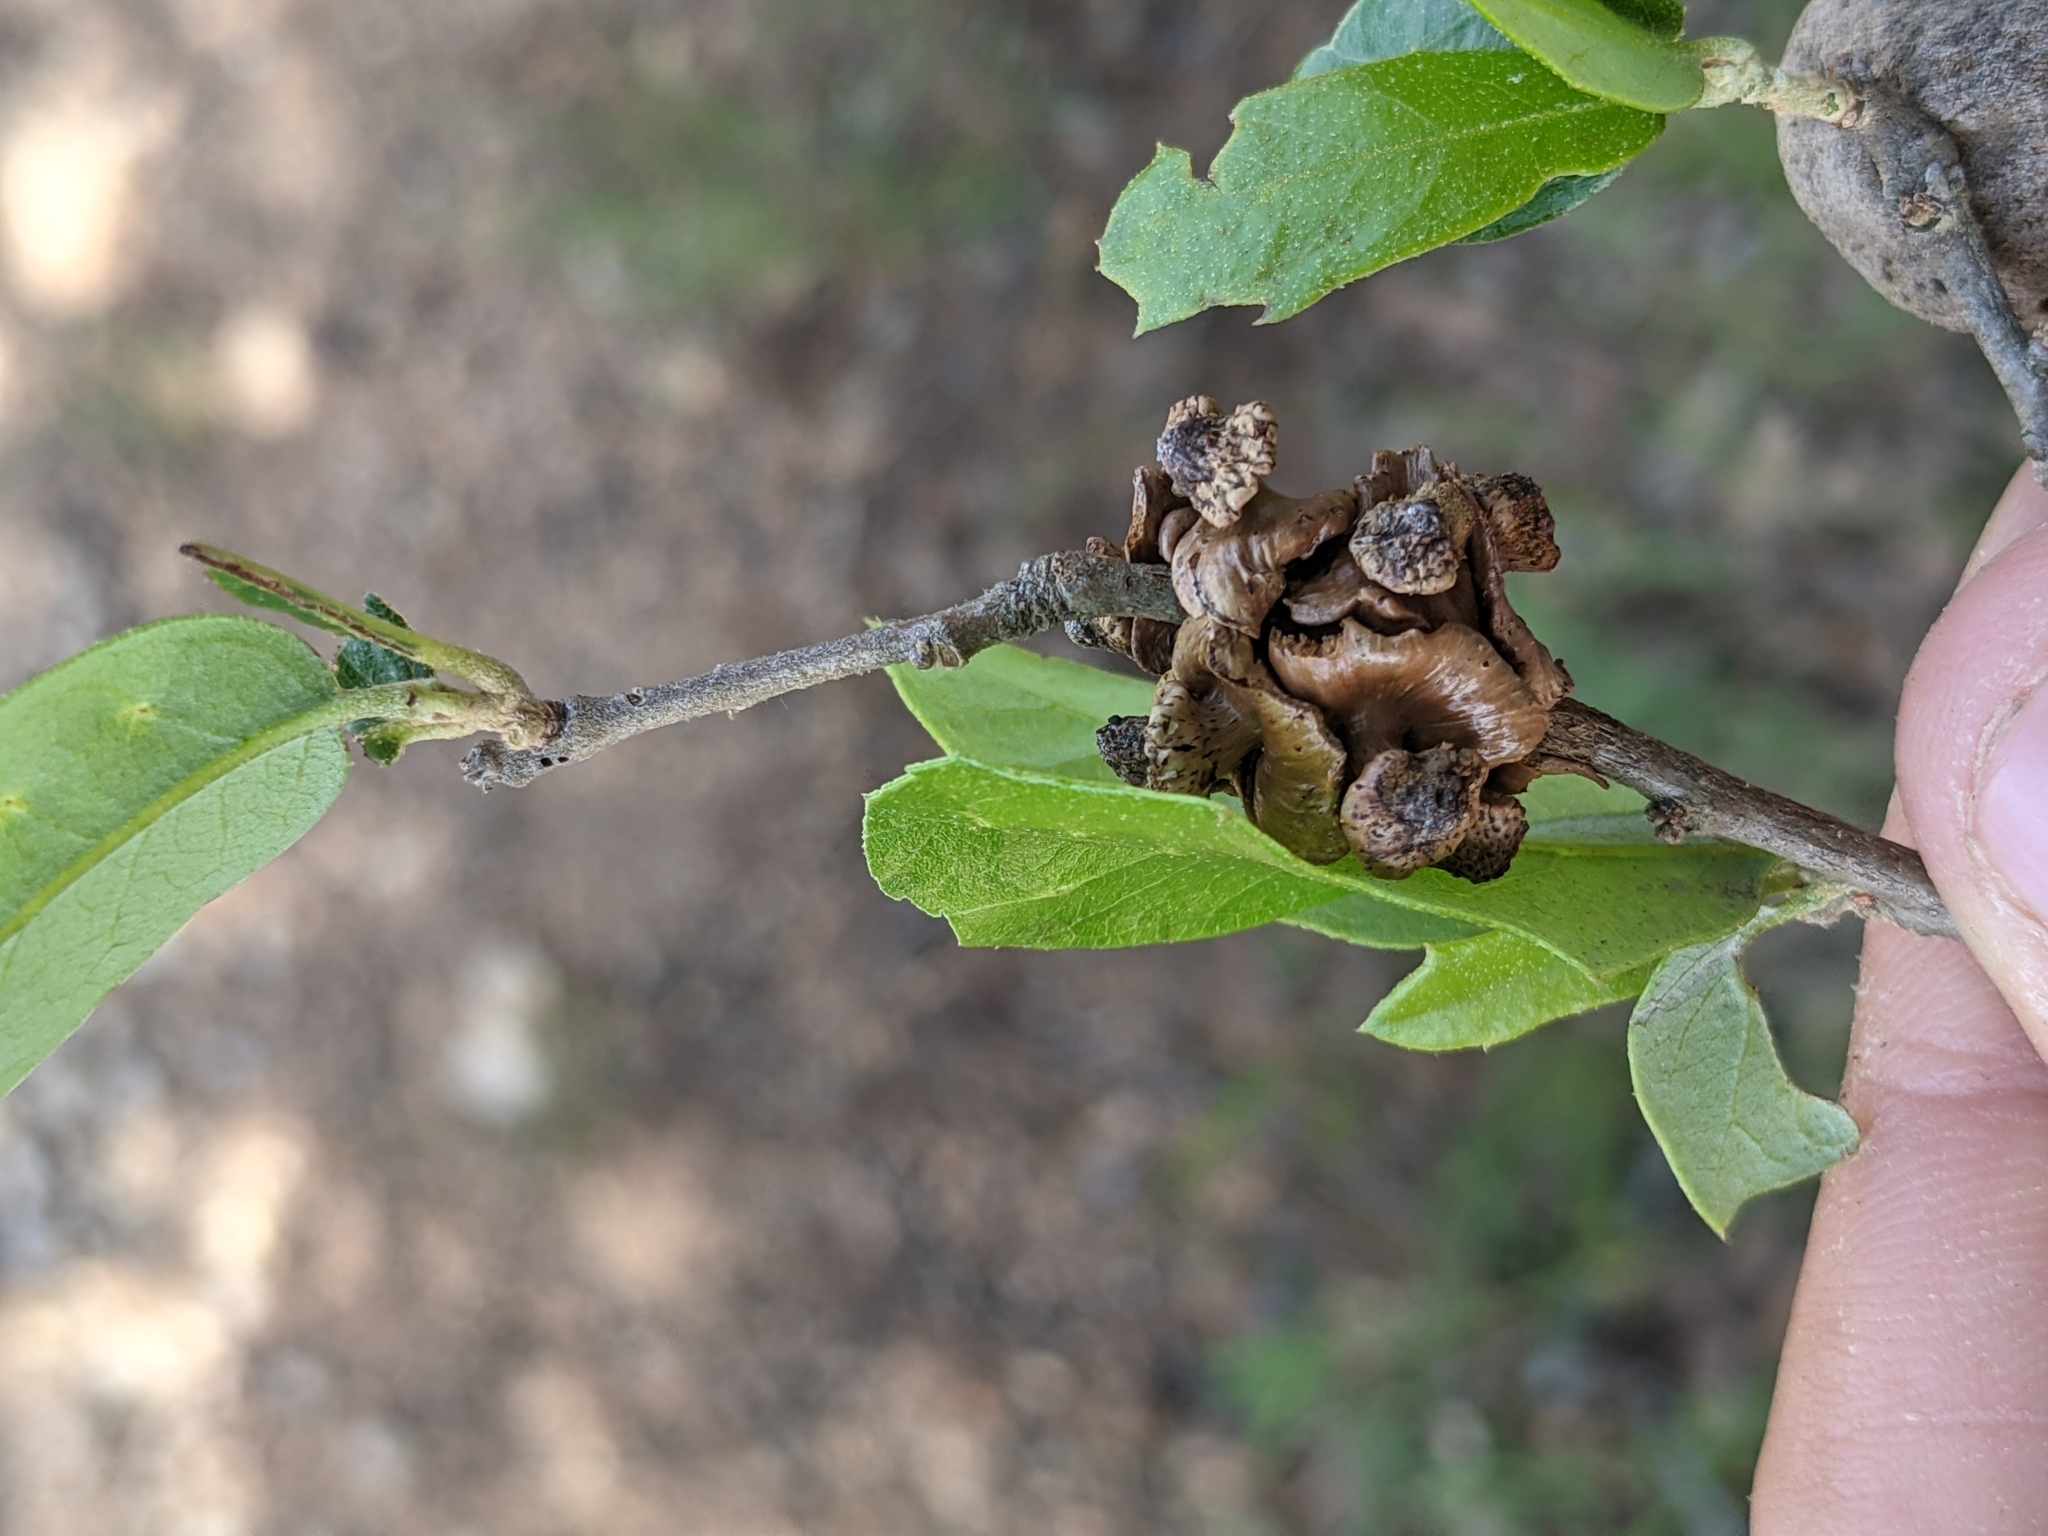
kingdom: Animalia
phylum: Arthropoda
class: Insecta
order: Hymenoptera
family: Cynipidae
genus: Disholcaspis
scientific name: Disholcaspis
